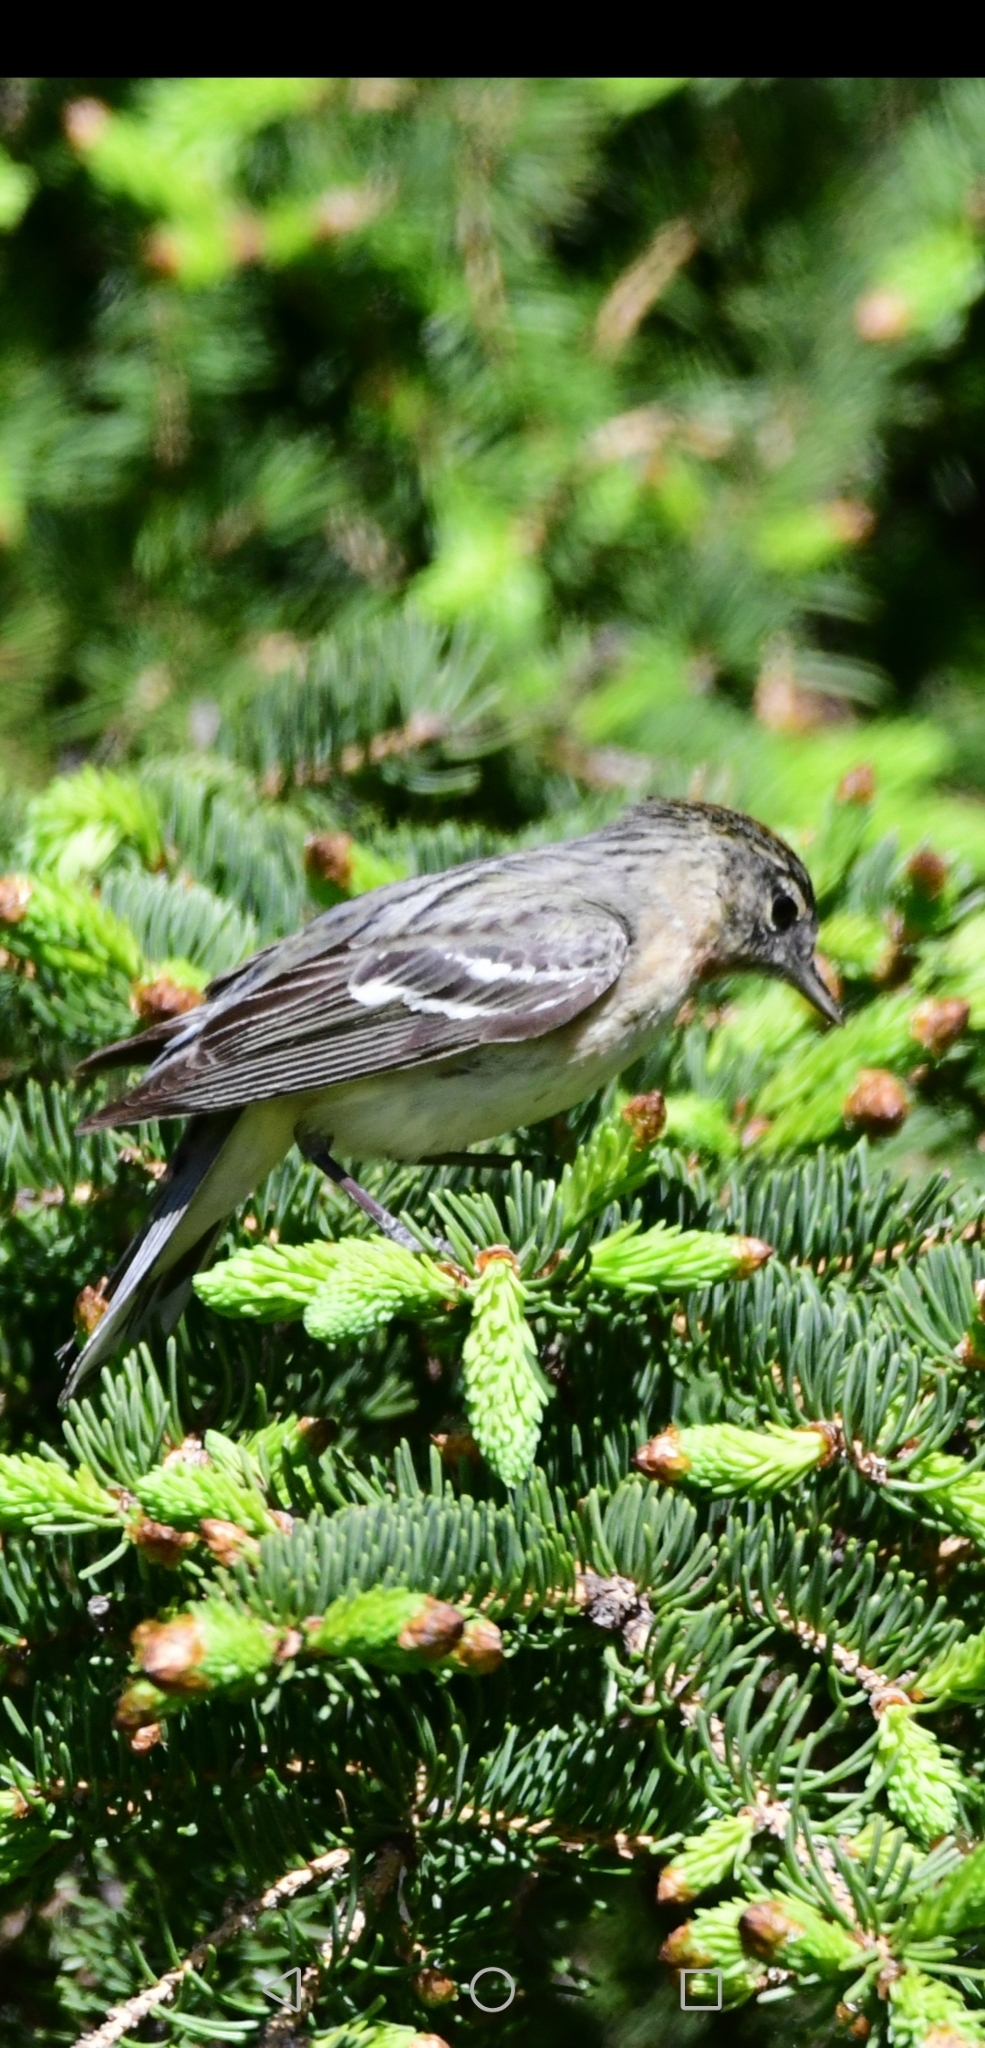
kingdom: Animalia
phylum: Chordata
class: Aves
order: Passeriformes
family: Parulidae
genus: Setophaga
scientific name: Setophaga castanea
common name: Bay-breasted warbler
